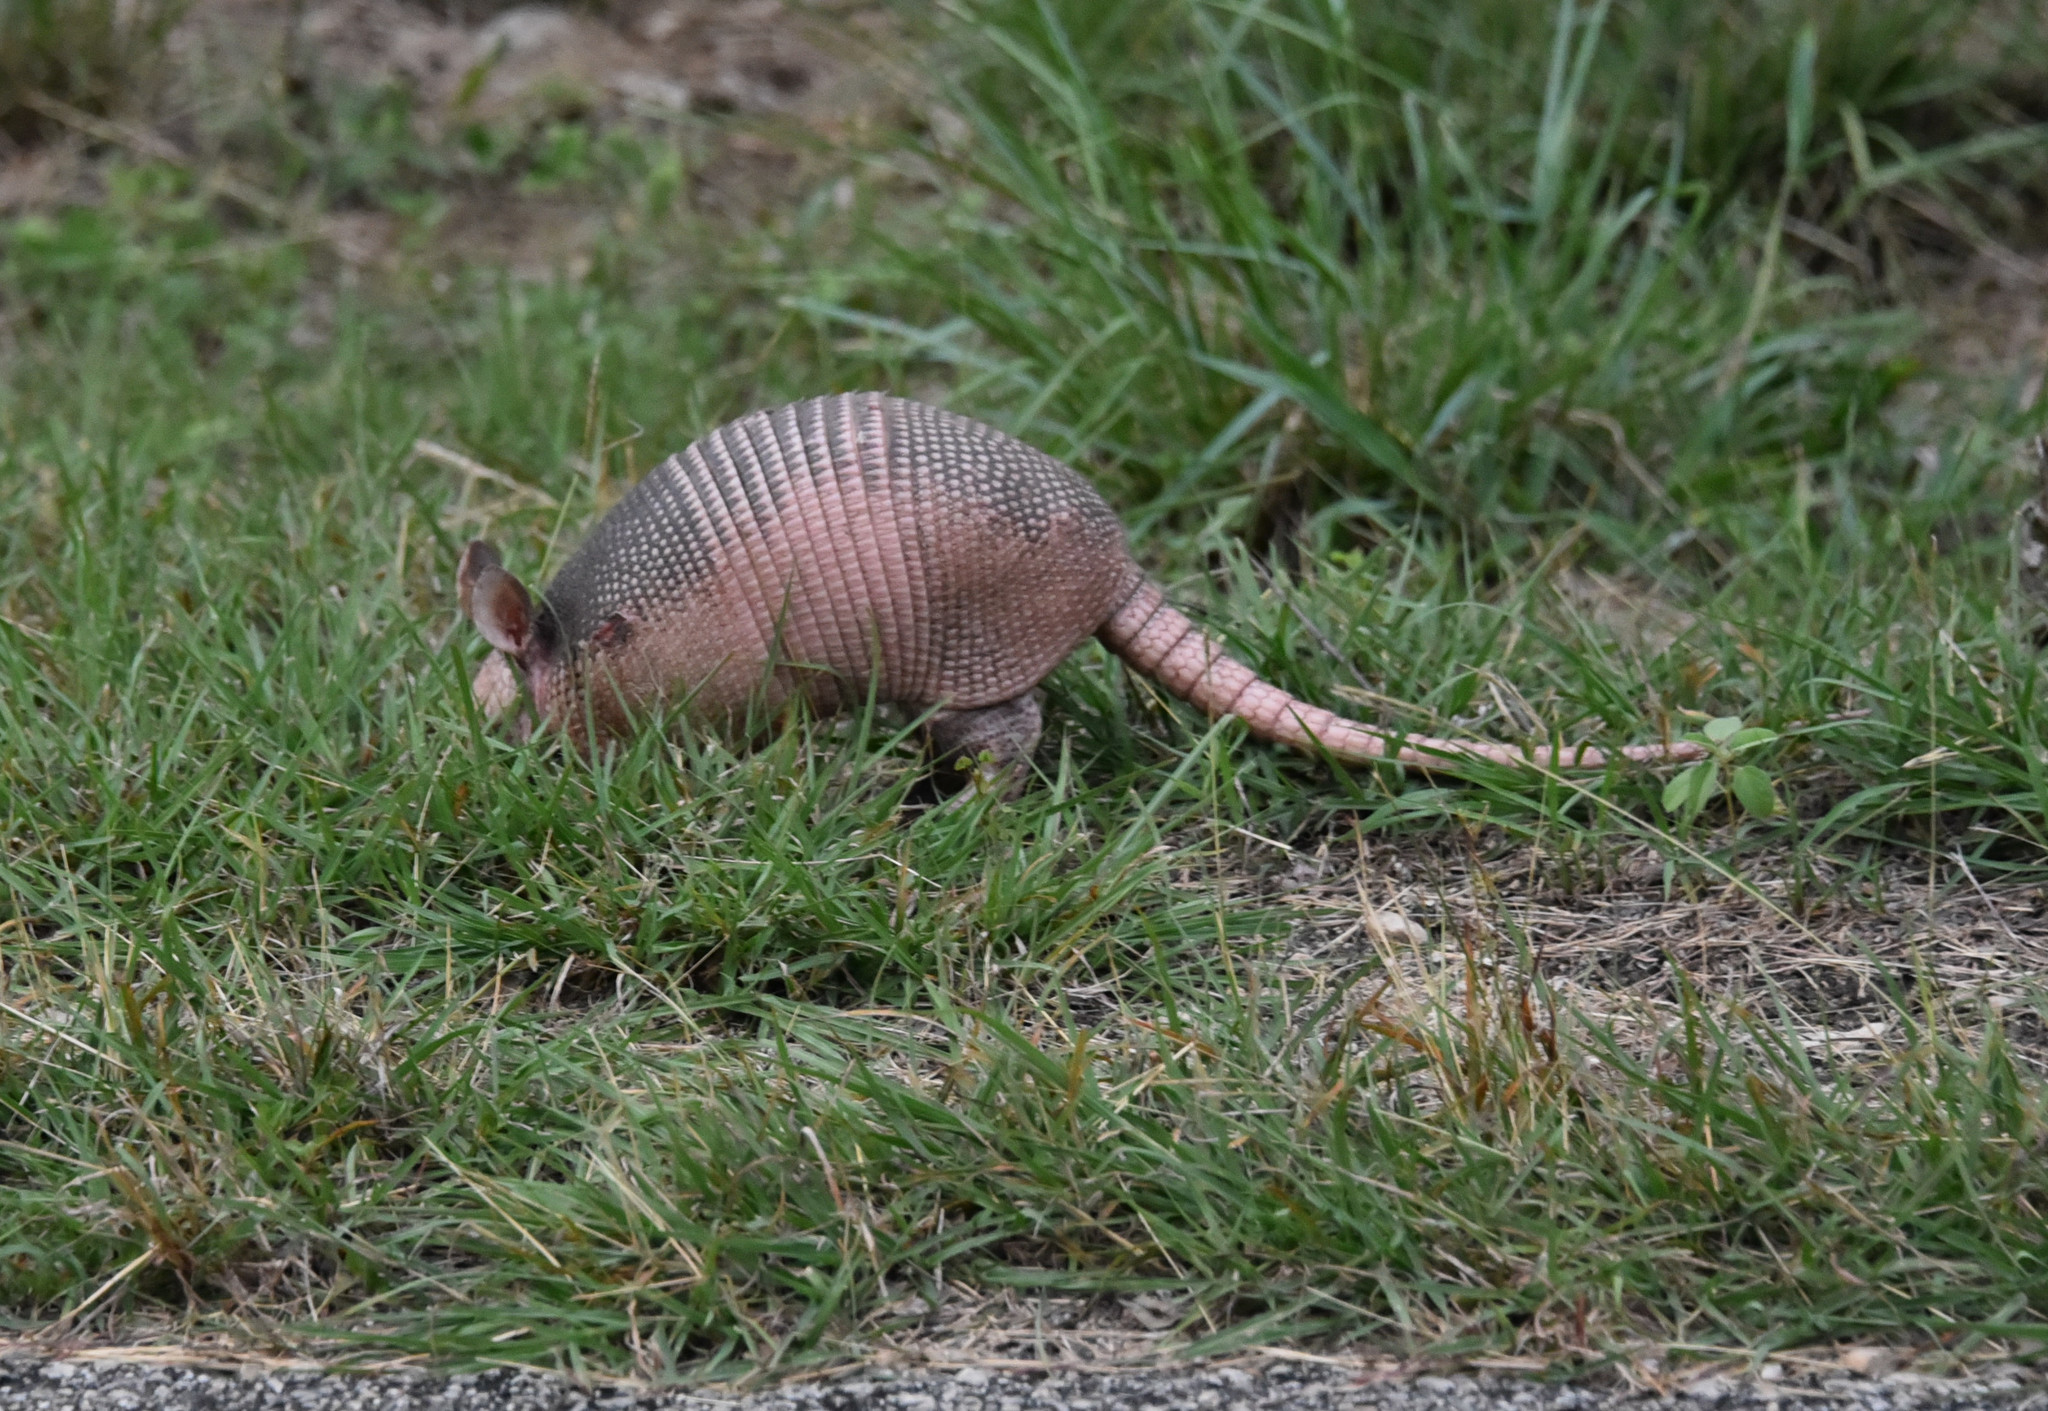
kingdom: Animalia
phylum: Chordata
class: Mammalia
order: Cingulata
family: Dasypodidae
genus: Dasypus
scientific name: Dasypus novemcinctus
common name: Nine-banded armadillo
